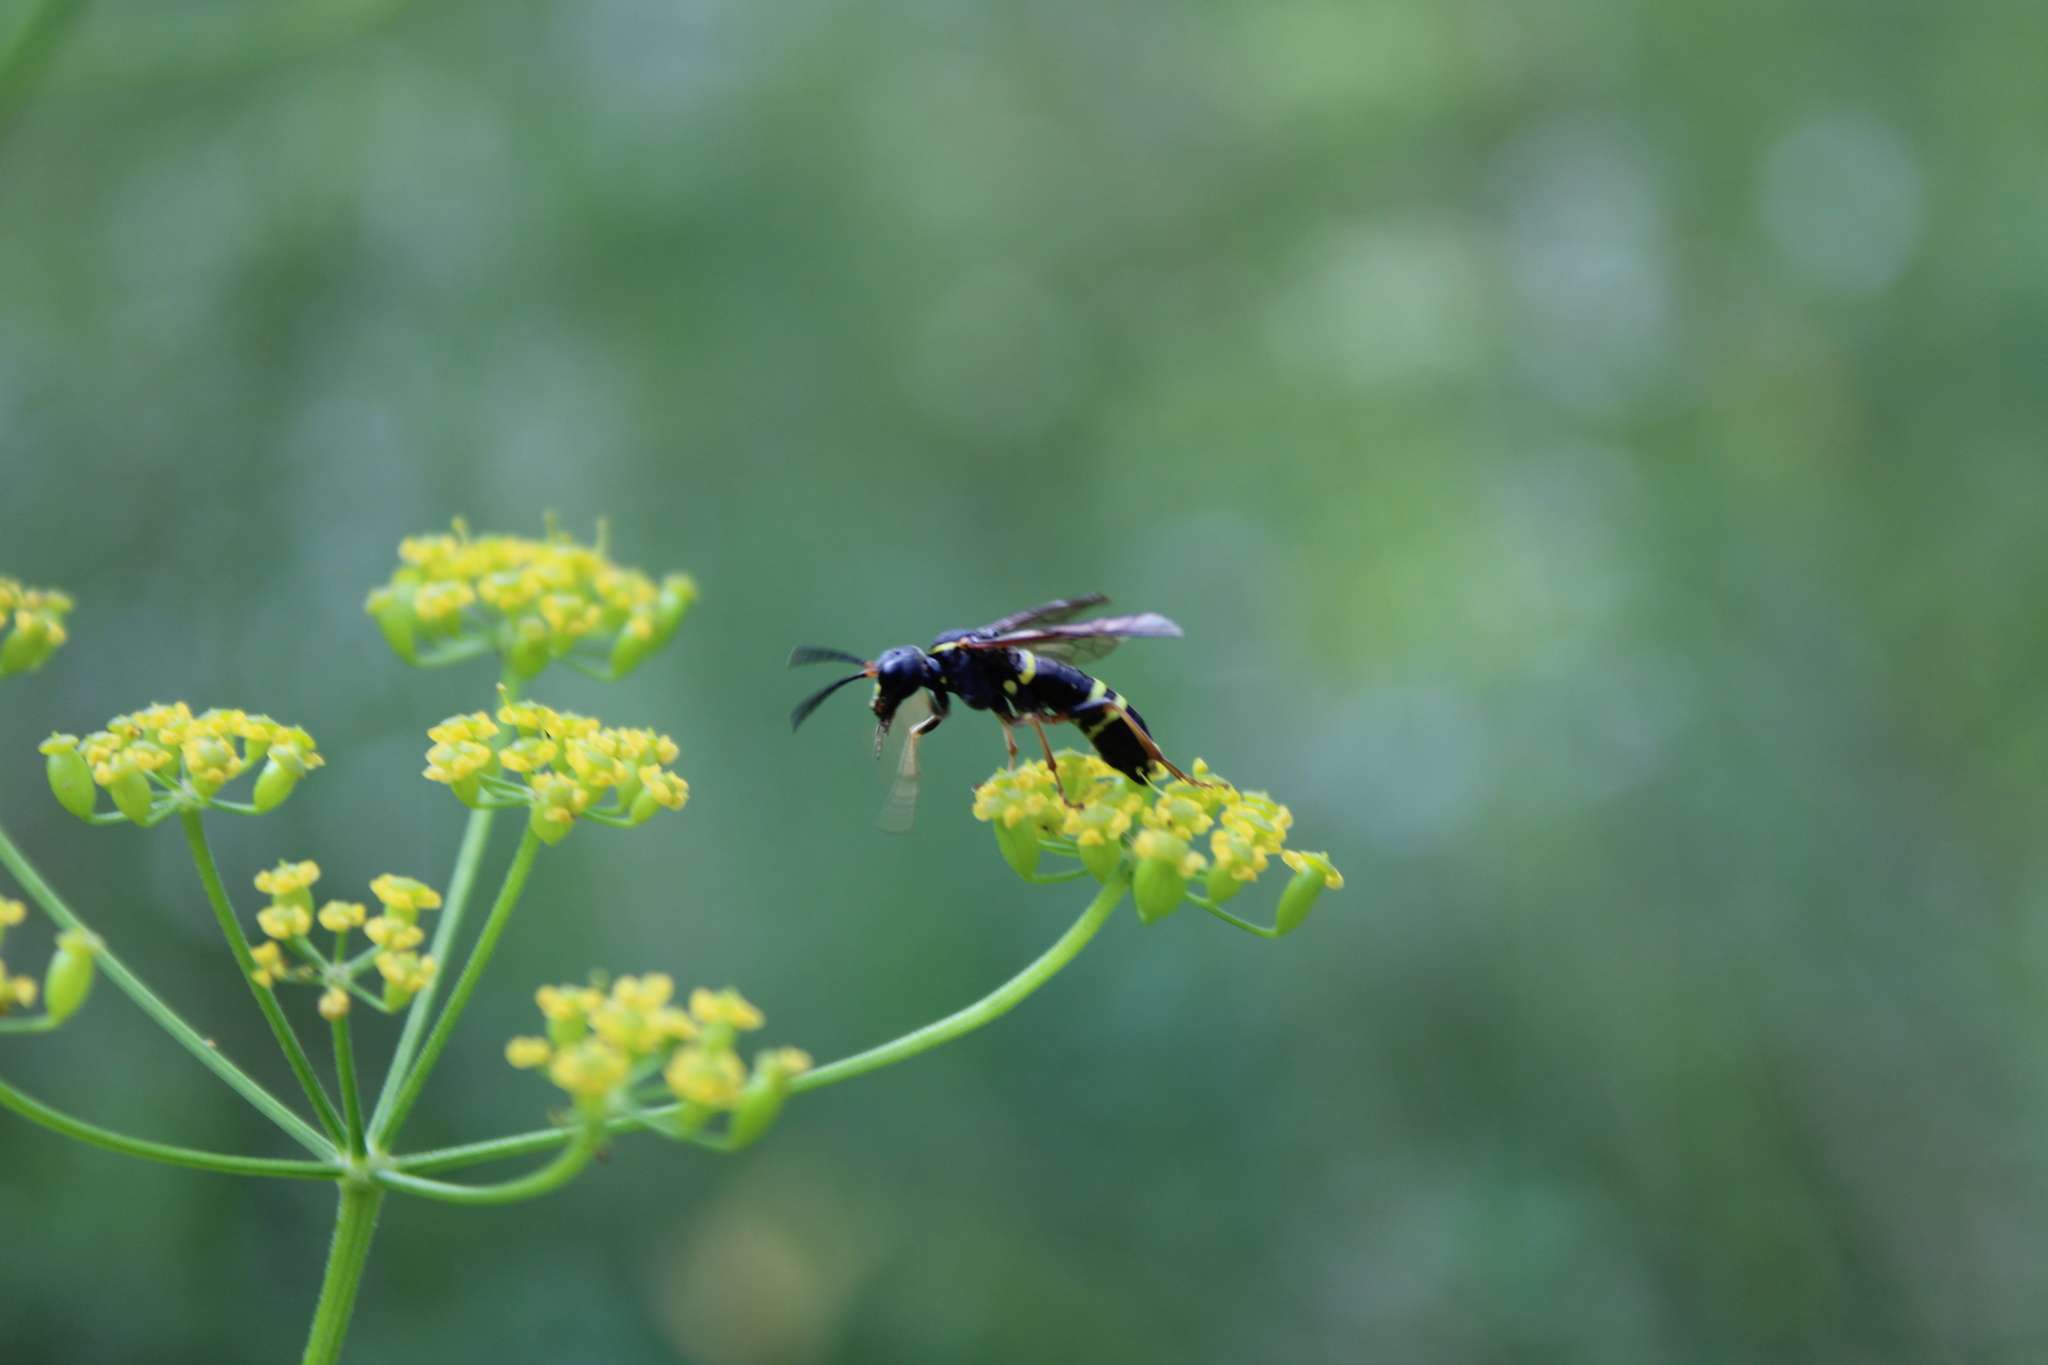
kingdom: Animalia
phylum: Arthropoda
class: Insecta
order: Hymenoptera
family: Tenthredinidae
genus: Tenthredo
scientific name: Tenthredo vespa
